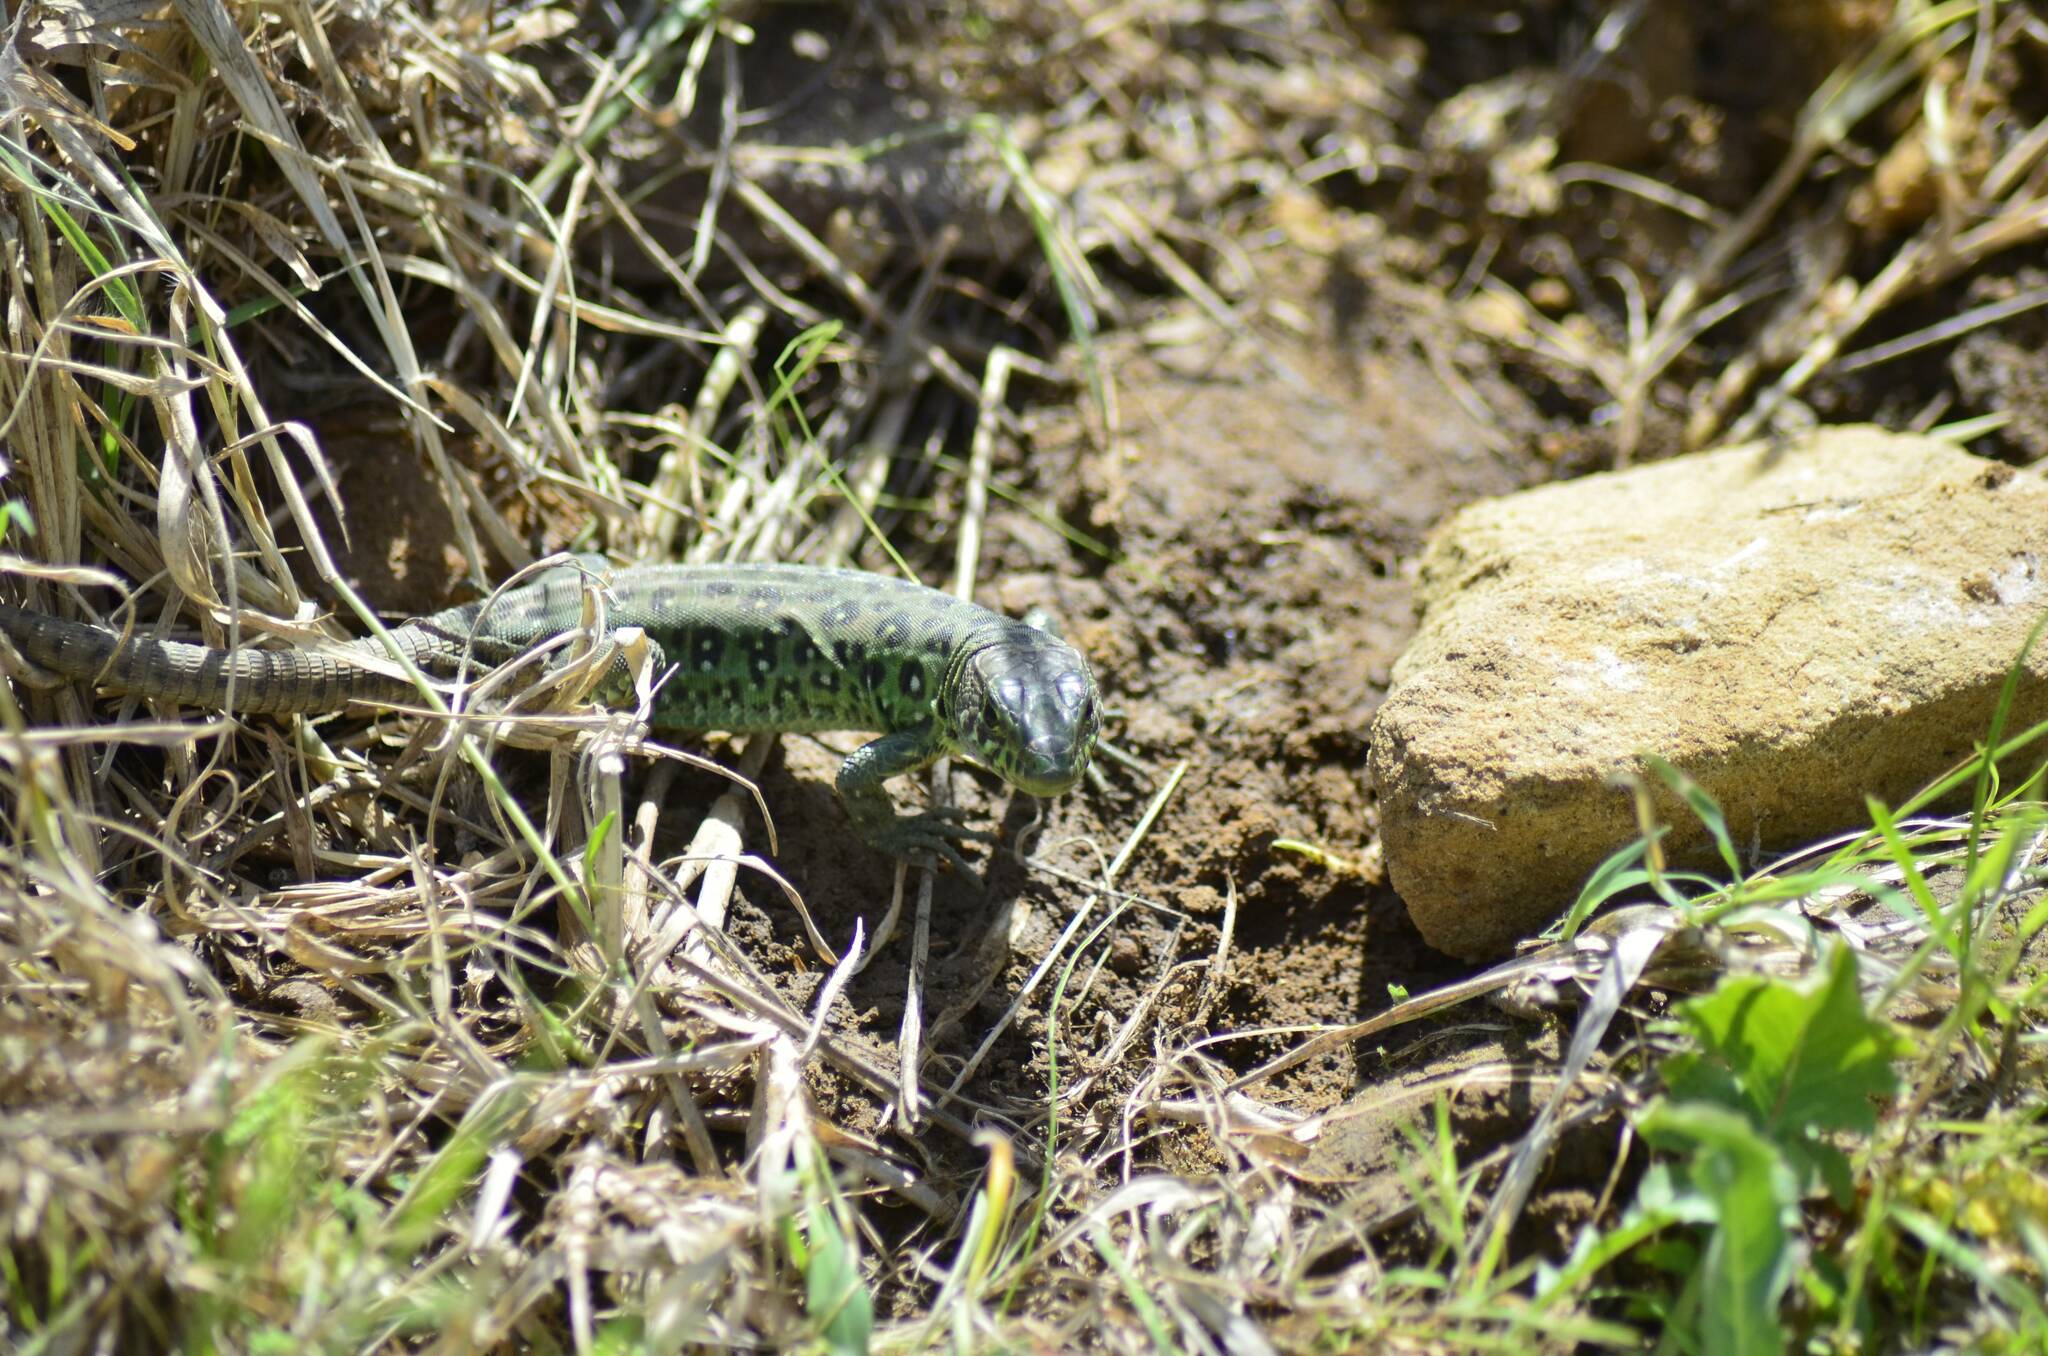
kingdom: Animalia
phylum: Chordata
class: Squamata
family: Lacertidae
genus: Timon
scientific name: Timon pater
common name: North african ocellated lizard
